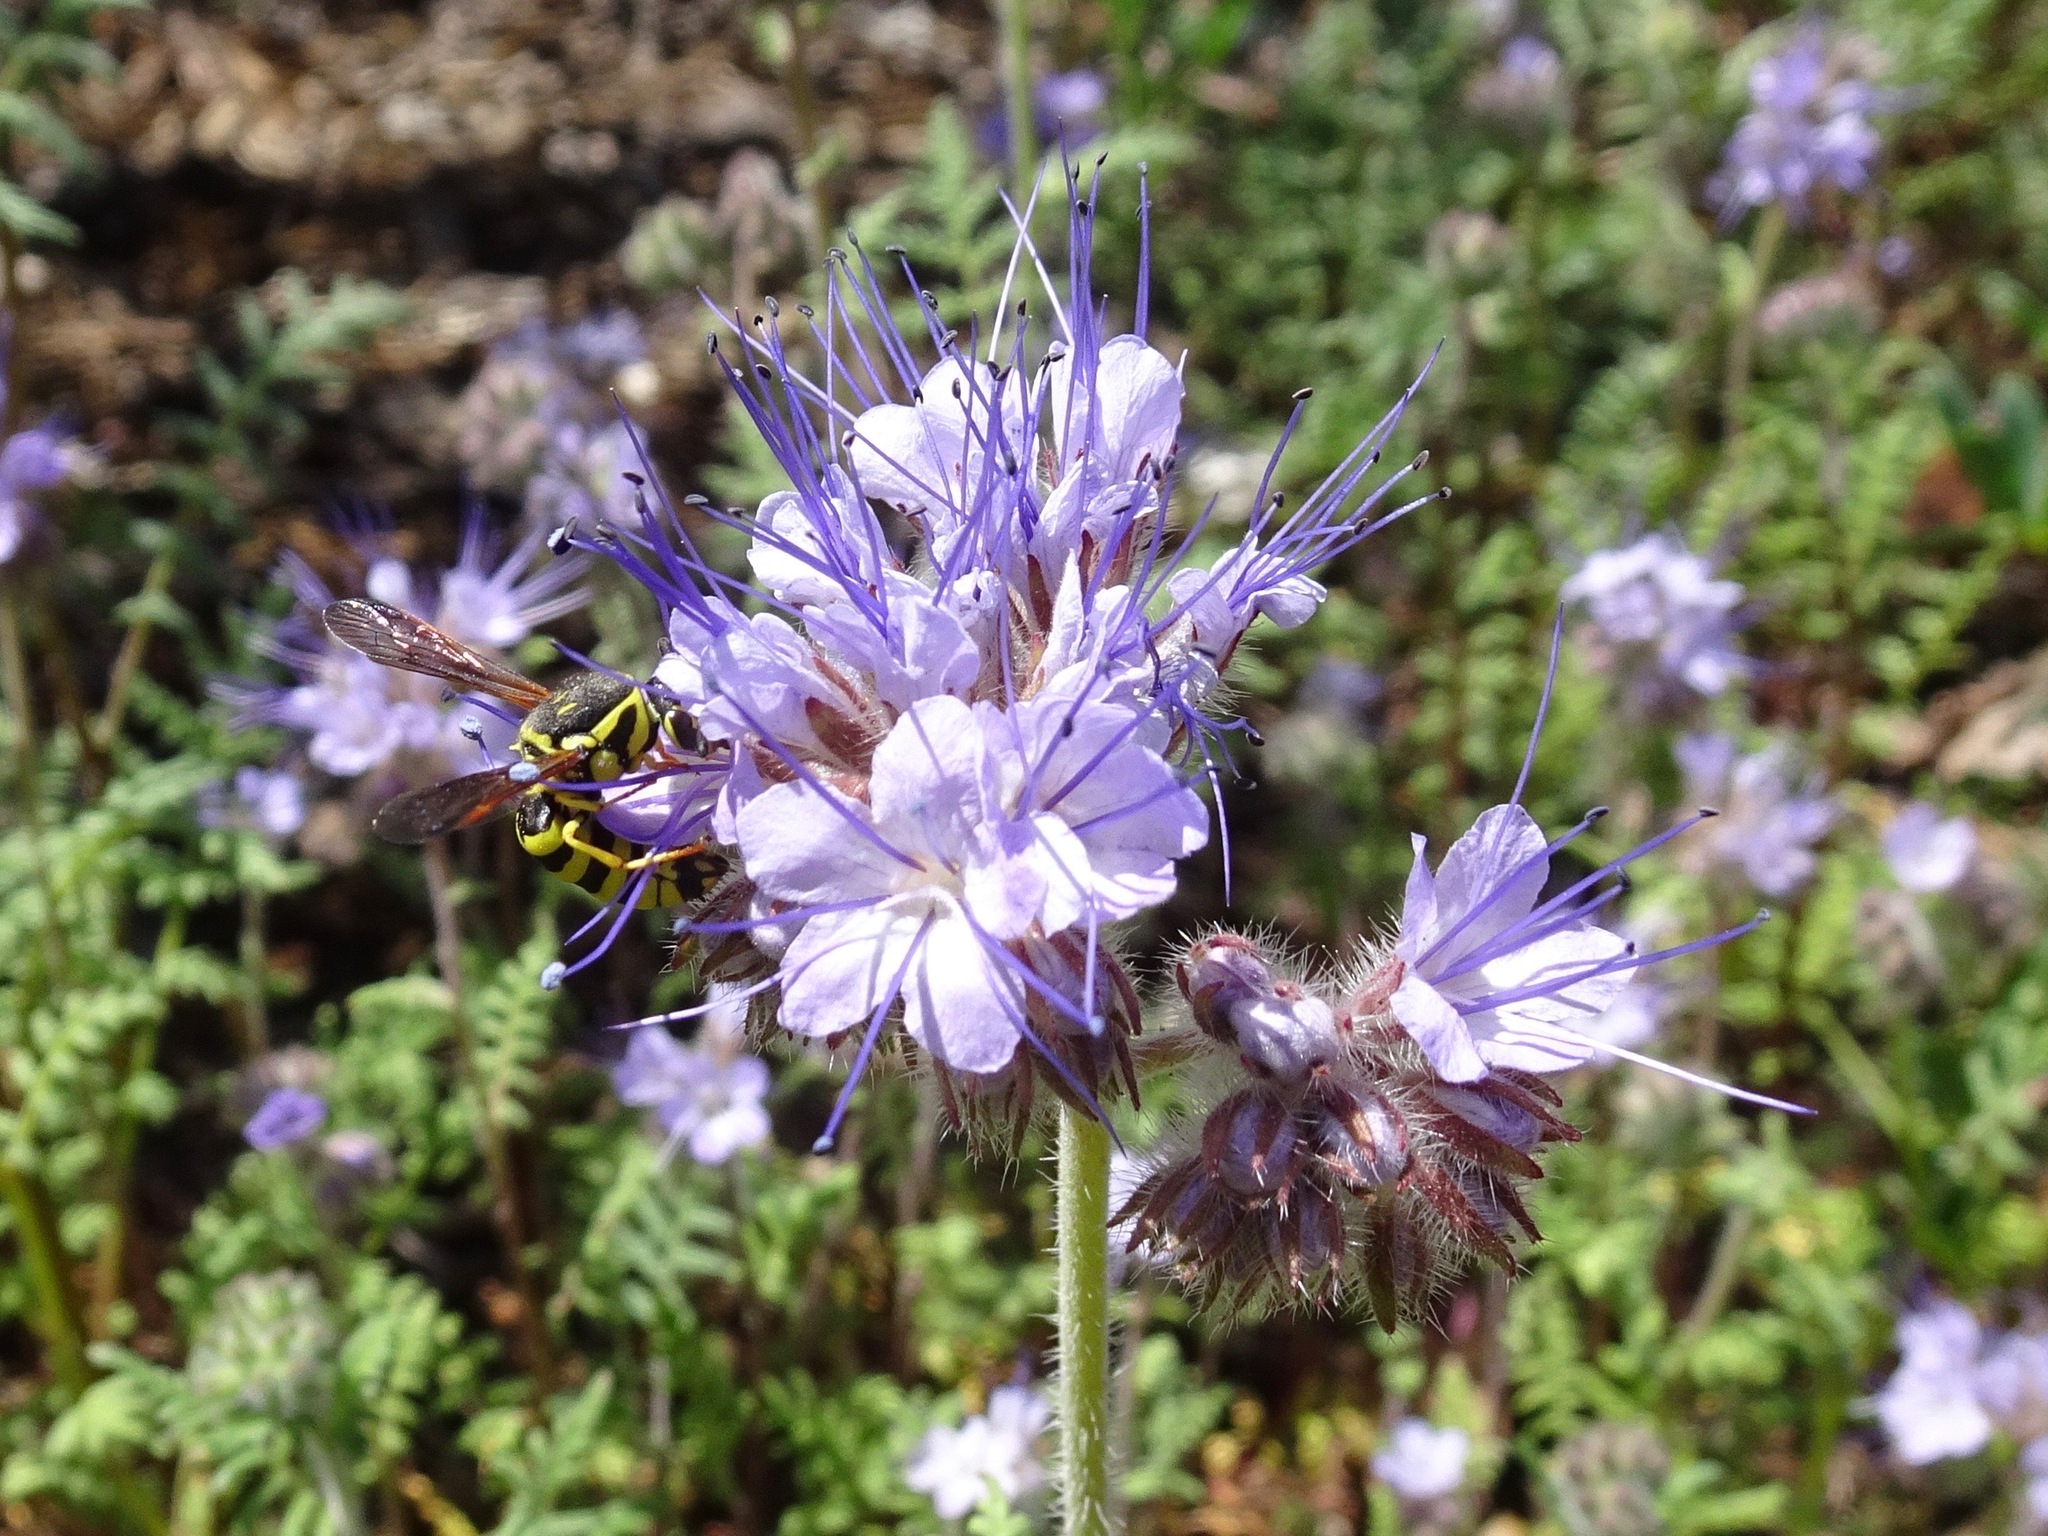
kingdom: Animalia
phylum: Arthropoda
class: Insecta
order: Hymenoptera
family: Masaridae
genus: Pseudomasaris
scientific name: Pseudomasaris edwardsi
